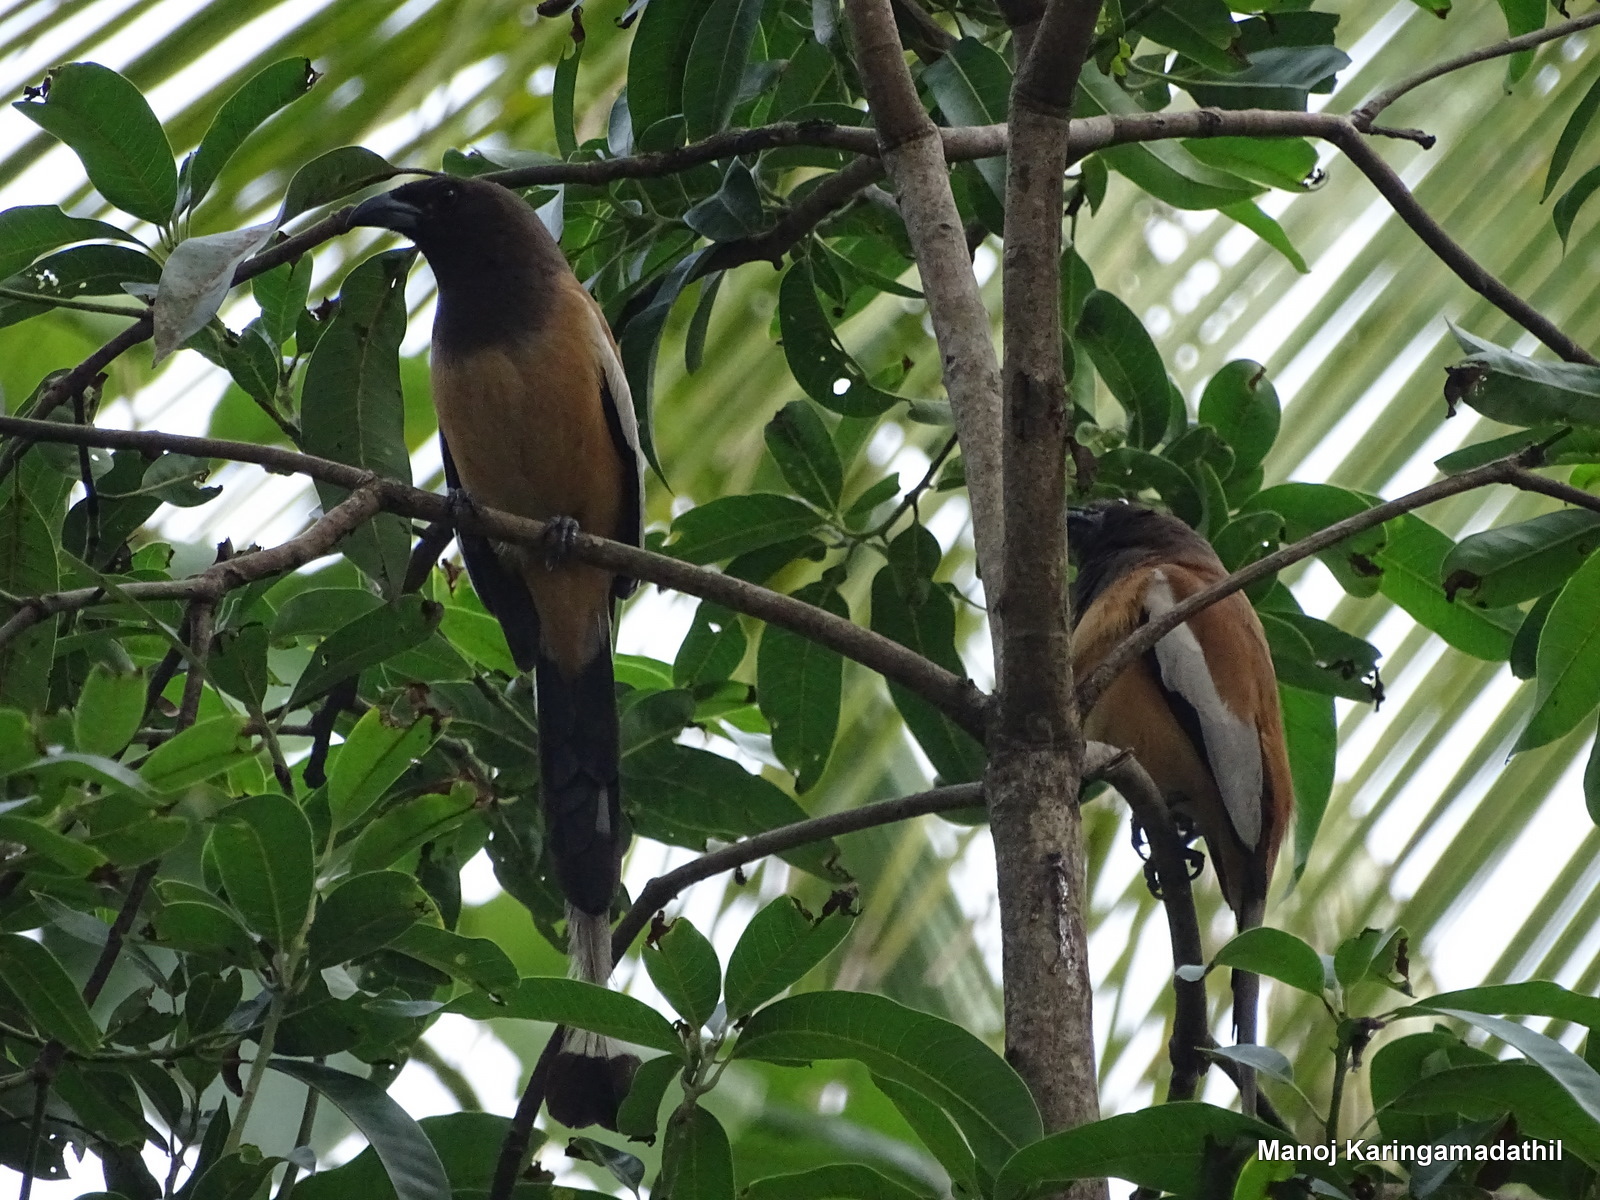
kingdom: Animalia
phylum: Chordata
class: Aves
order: Passeriformes
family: Corvidae
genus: Dendrocitta
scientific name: Dendrocitta vagabunda
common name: Rufous treepie
